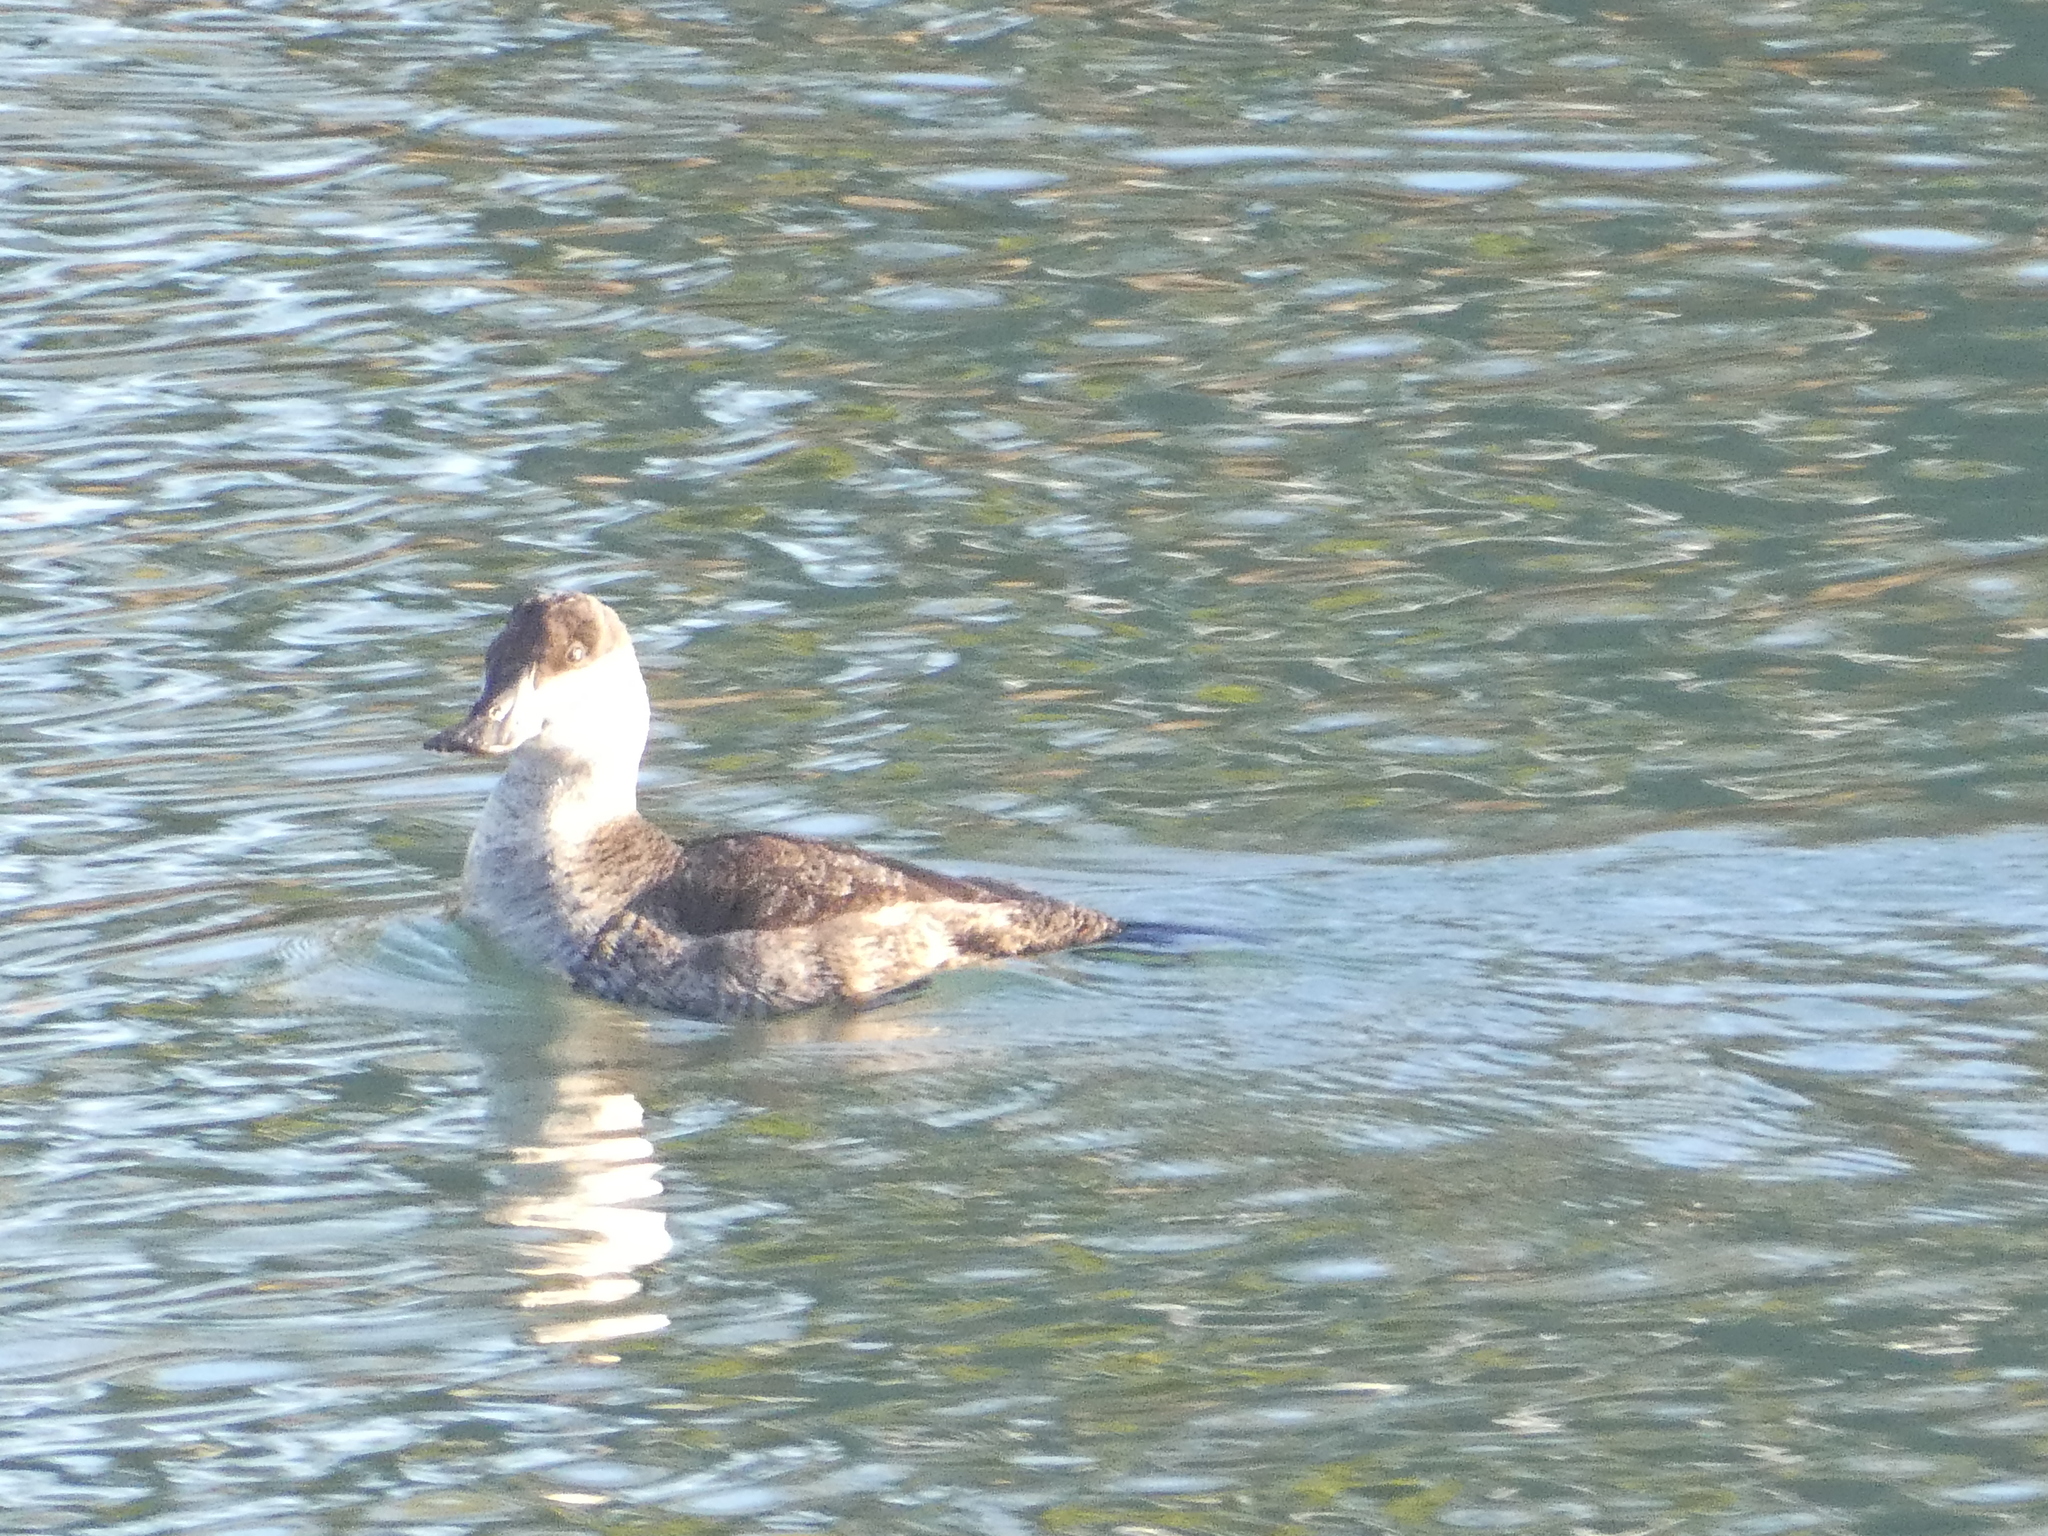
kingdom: Animalia
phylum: Chordata
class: Aves
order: Anseriformes
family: Anatidae
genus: Oxyura
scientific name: Oxyura jamaicensis
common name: Ruddy duck
